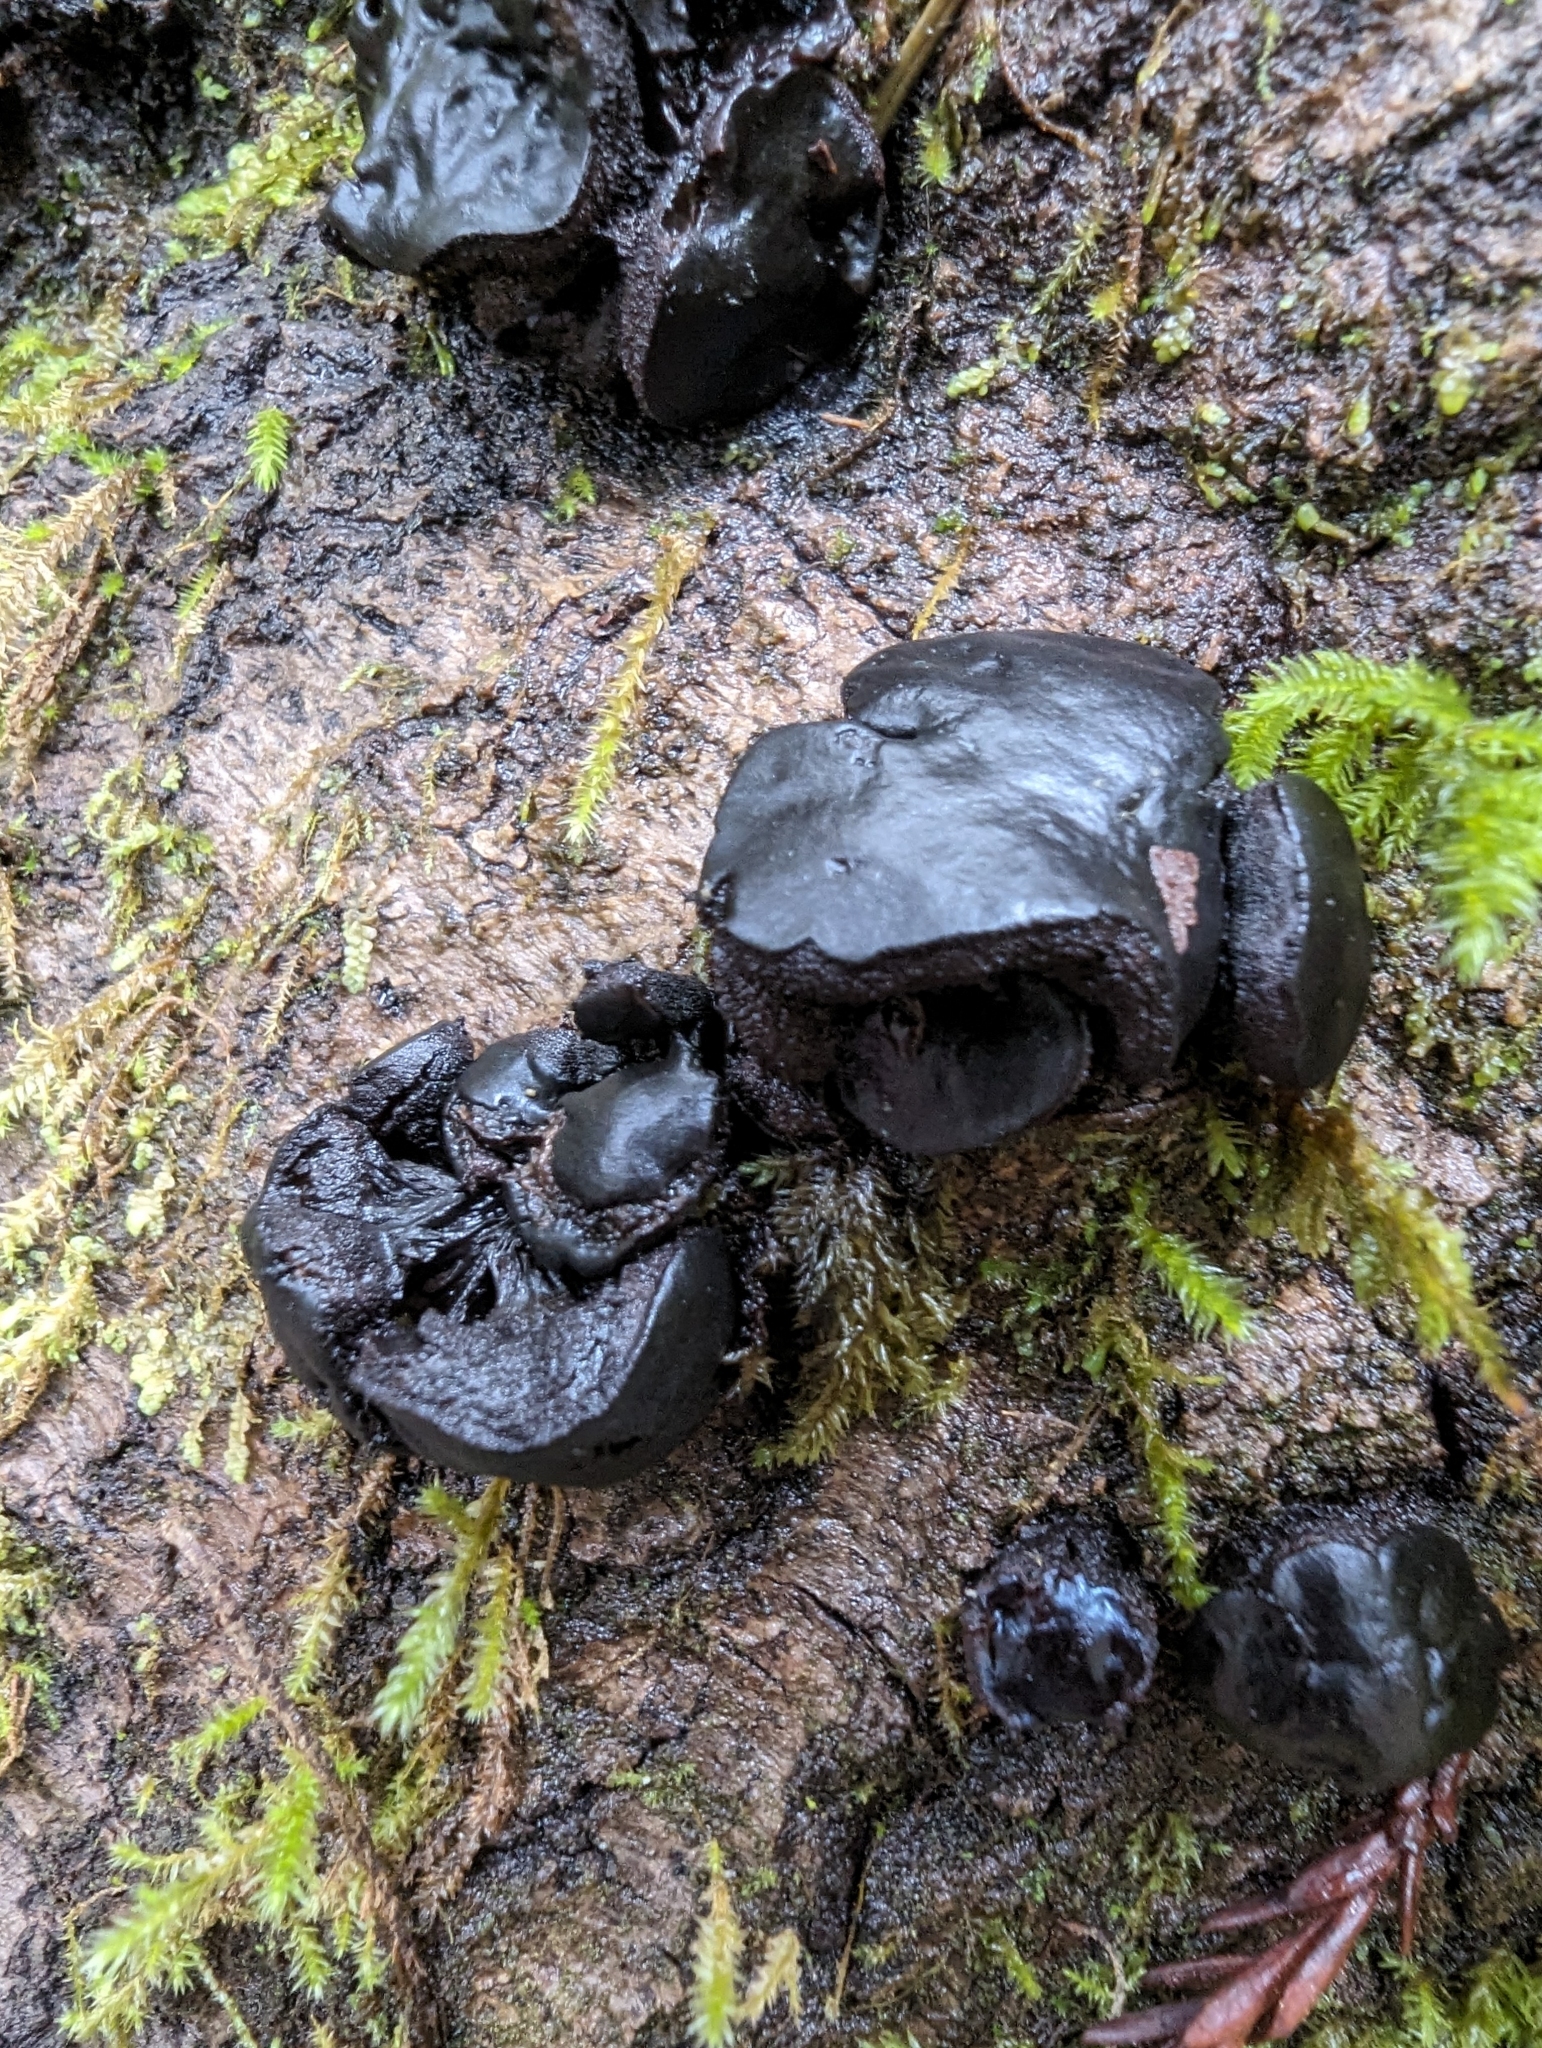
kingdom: Fungi
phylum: Ascomycota
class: Leotiomycetes
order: Phacidiales
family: Phacidiaceae
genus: Bulgaria
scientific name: Bulgaria inquinans
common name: Black bulgar
